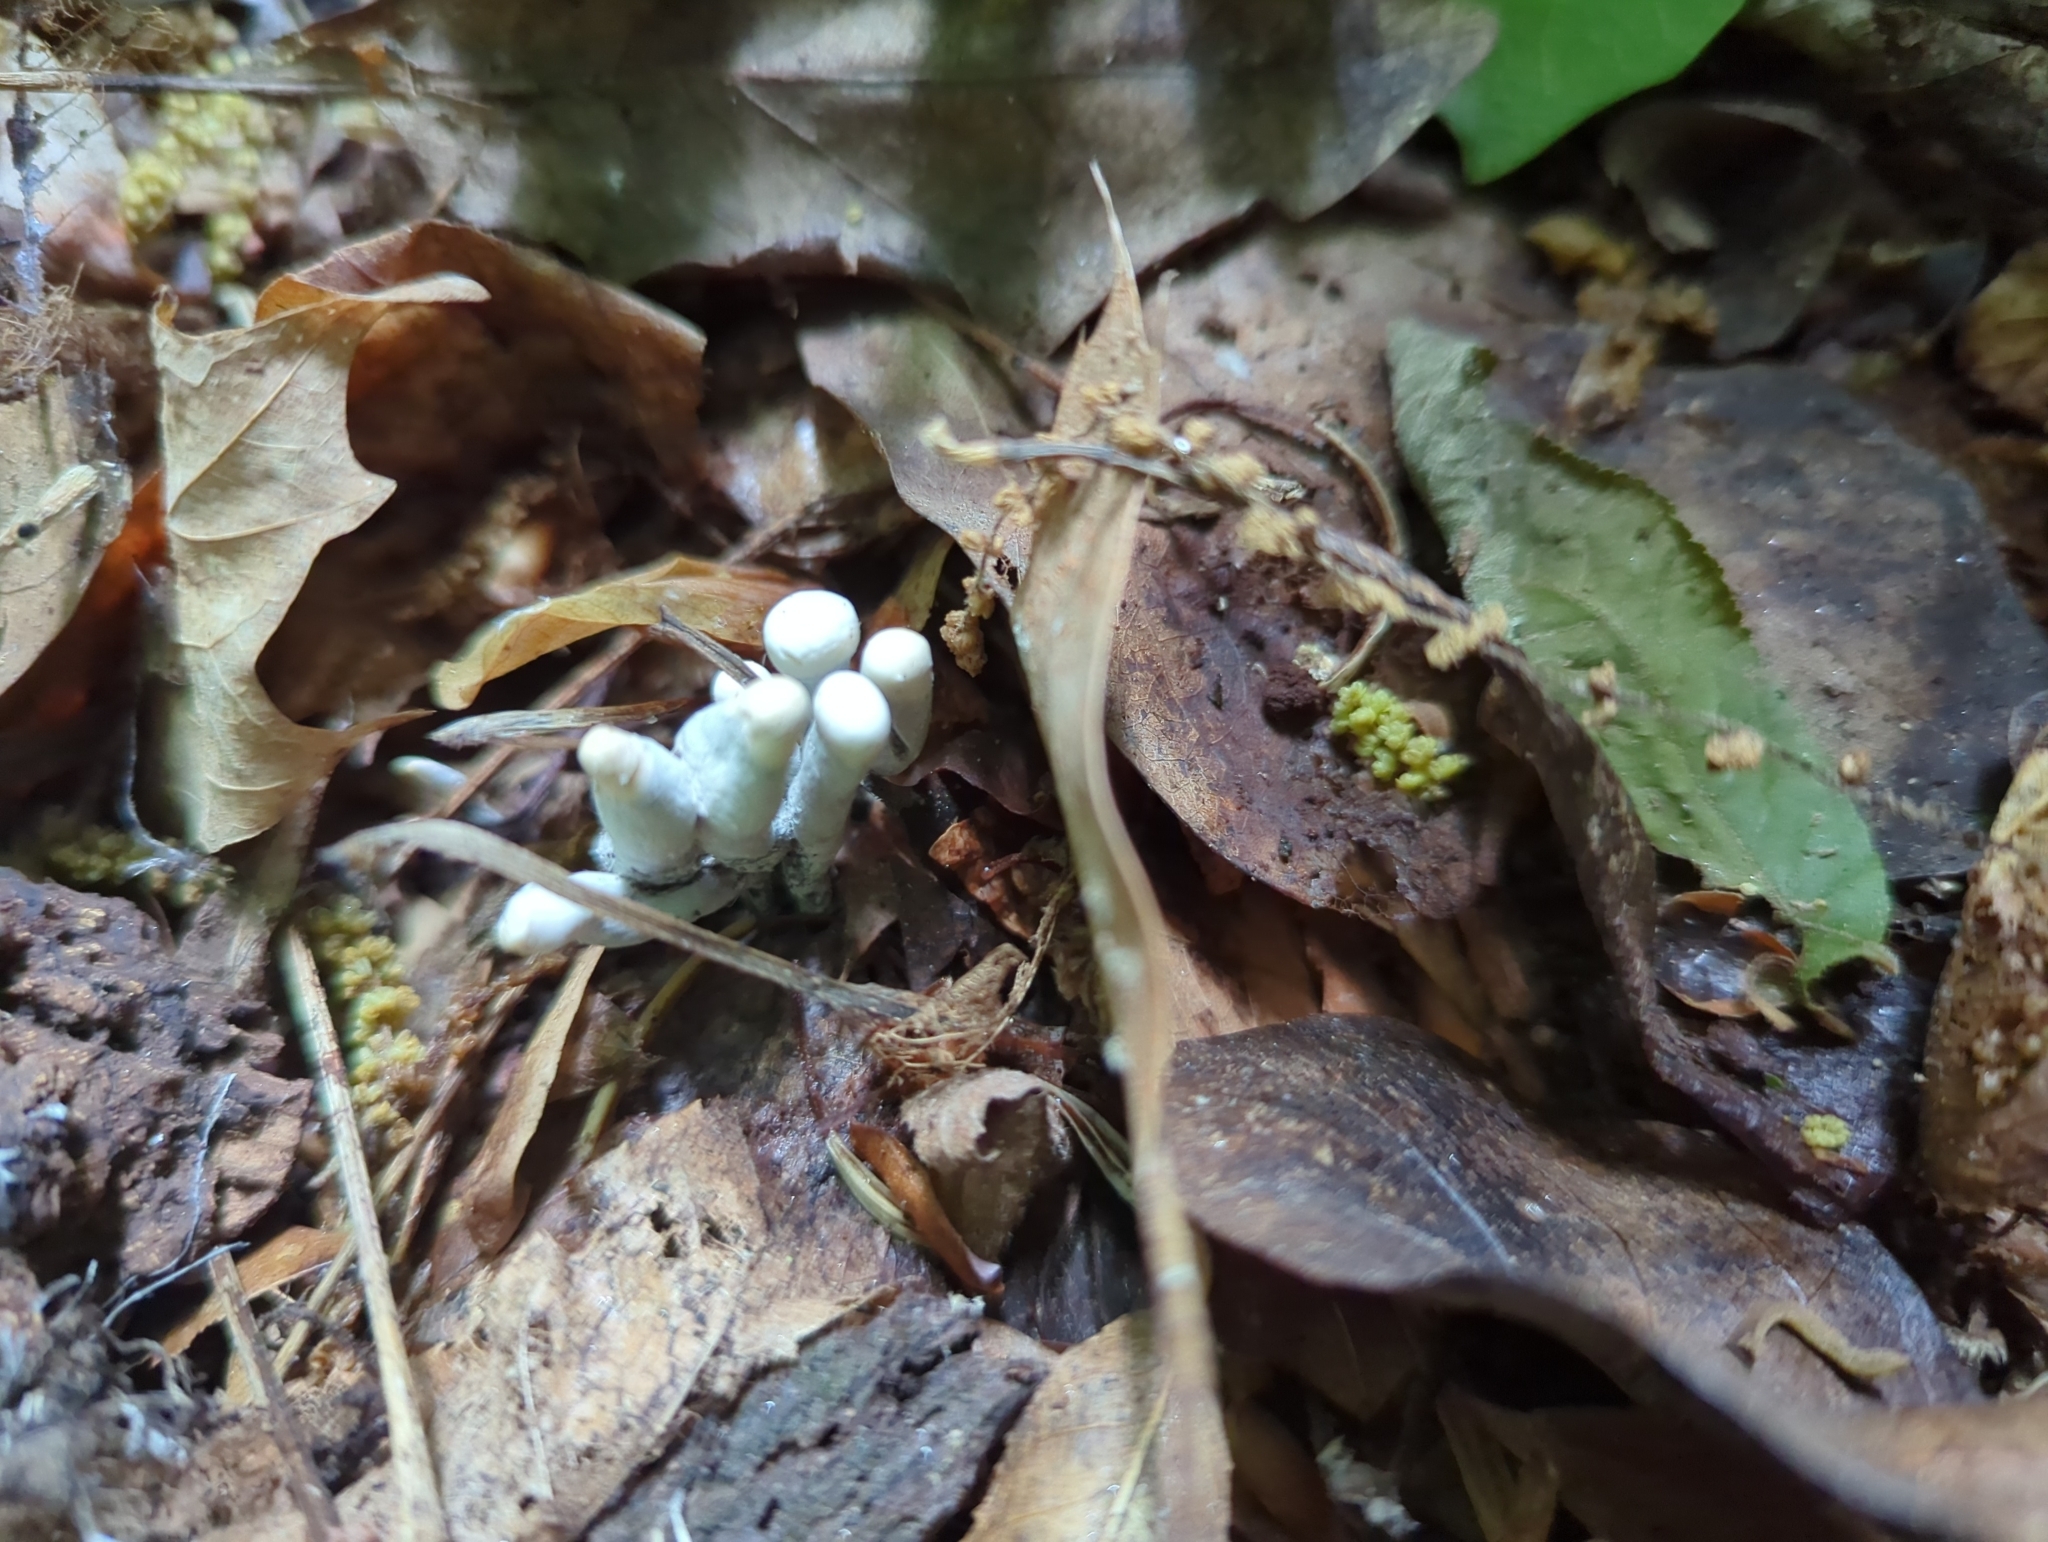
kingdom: Fungi
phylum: Ascomycota
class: Sordariomycetes
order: Xylariales
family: Xylariaceae
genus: Xylaria
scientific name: Xylaria polymorpha
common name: Dead man's fingers
